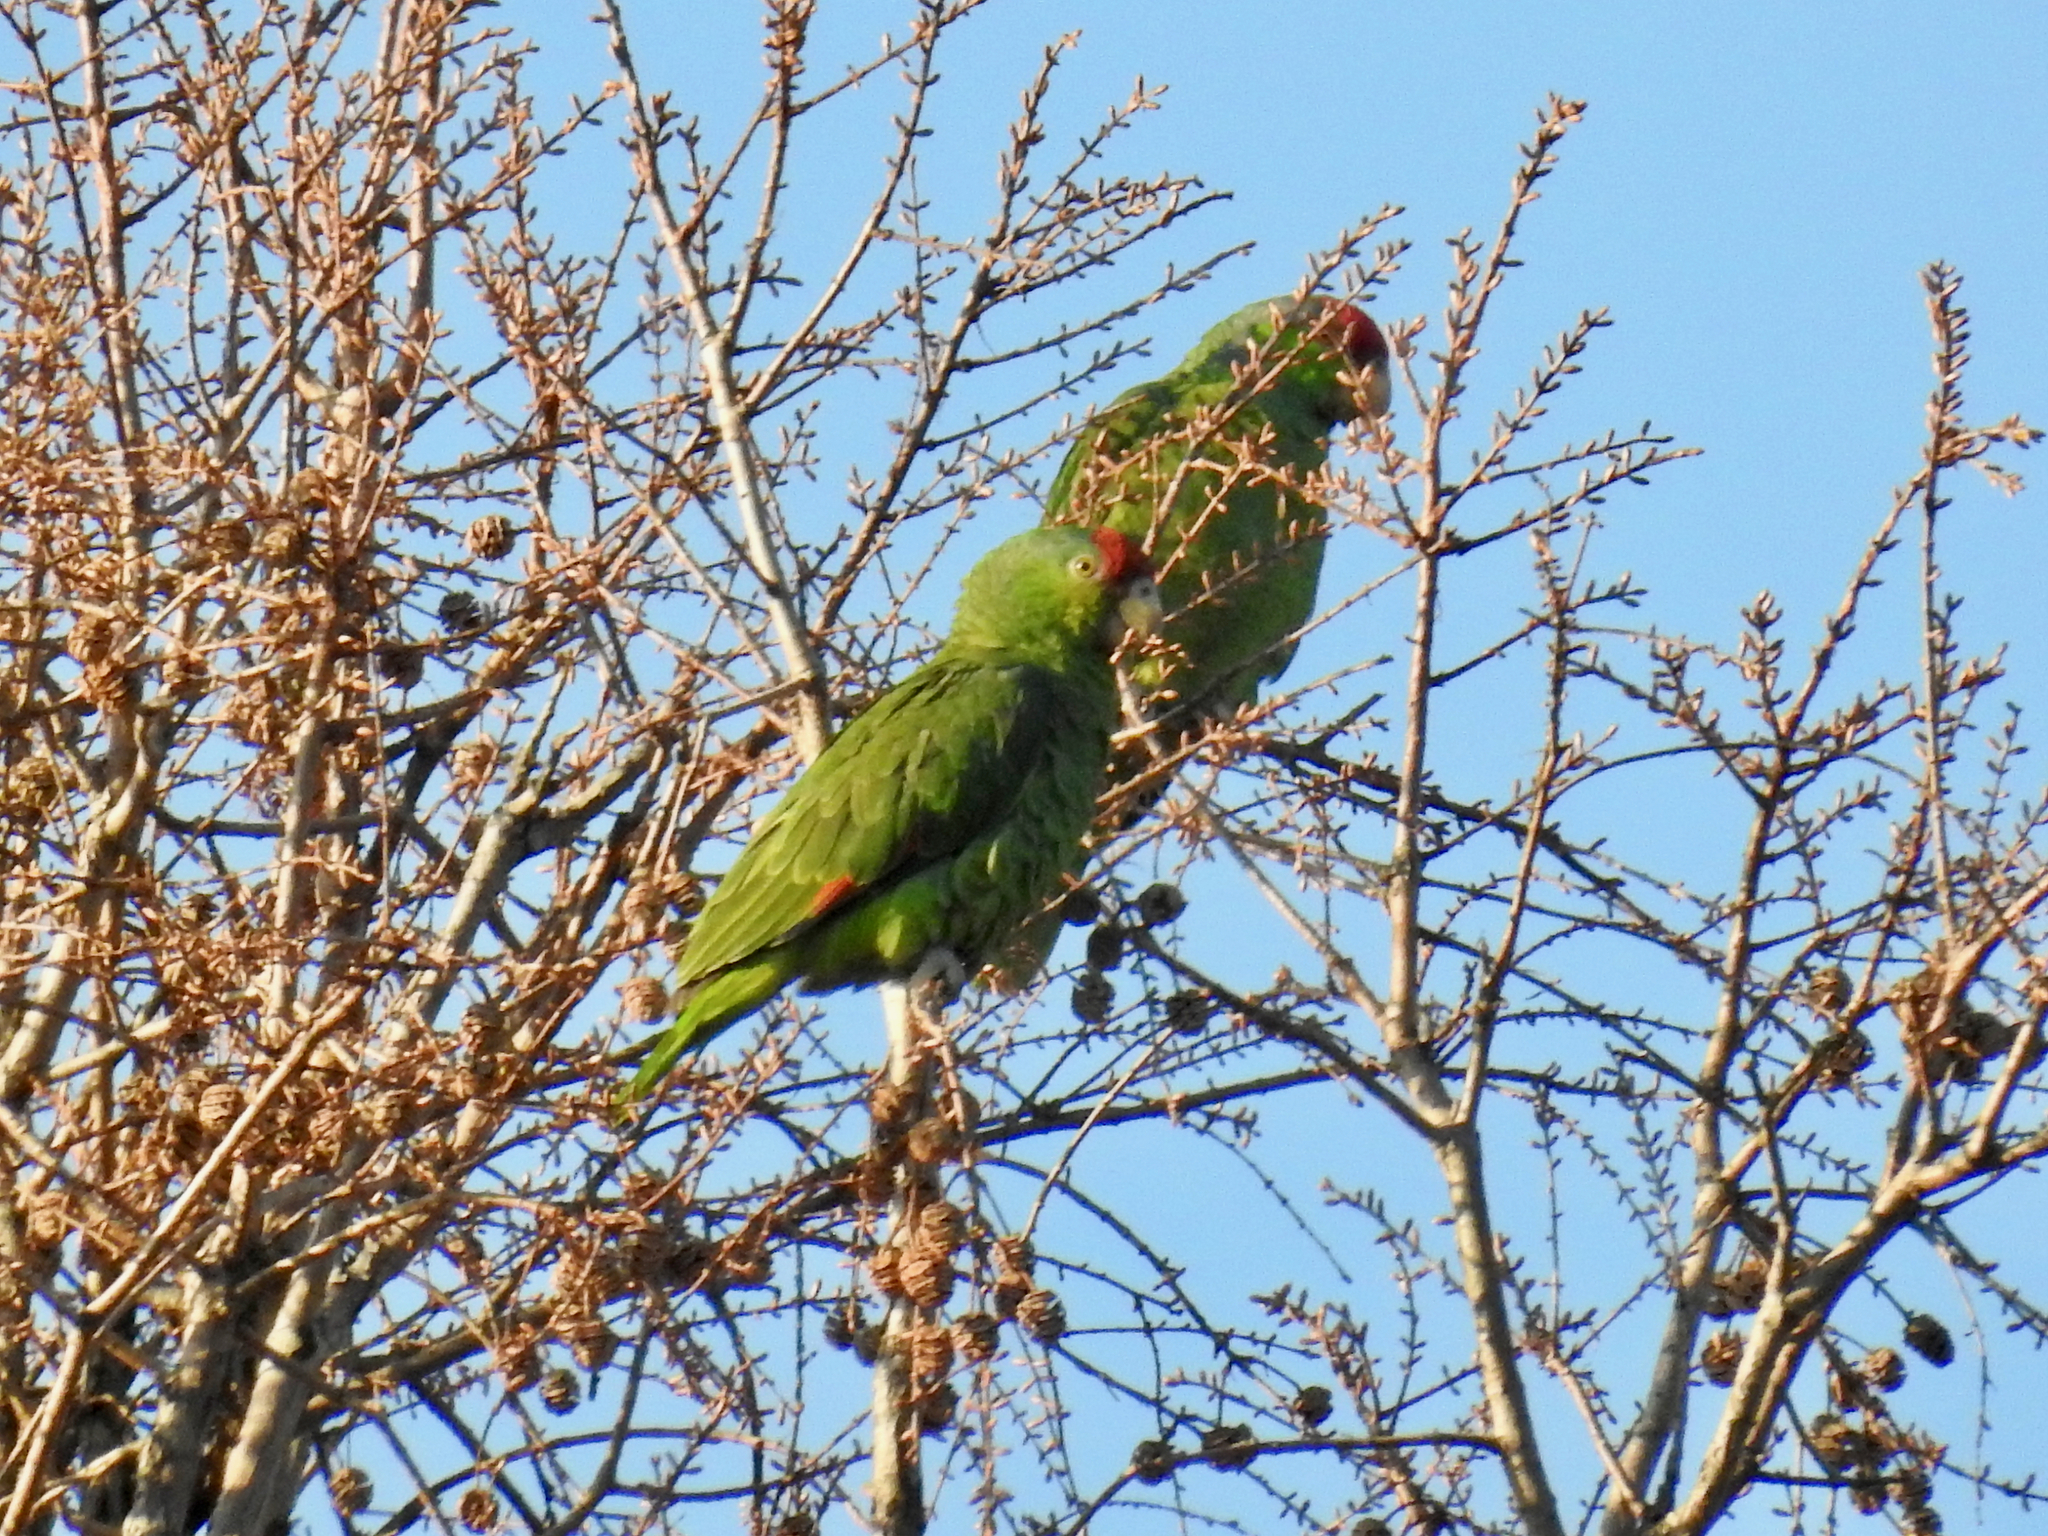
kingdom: Animalia
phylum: Chordata
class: Aves
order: Psittaciformes
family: Psittacidae
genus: Amazona
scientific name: Amazona viridigenalis
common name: Red-crowned amazon
